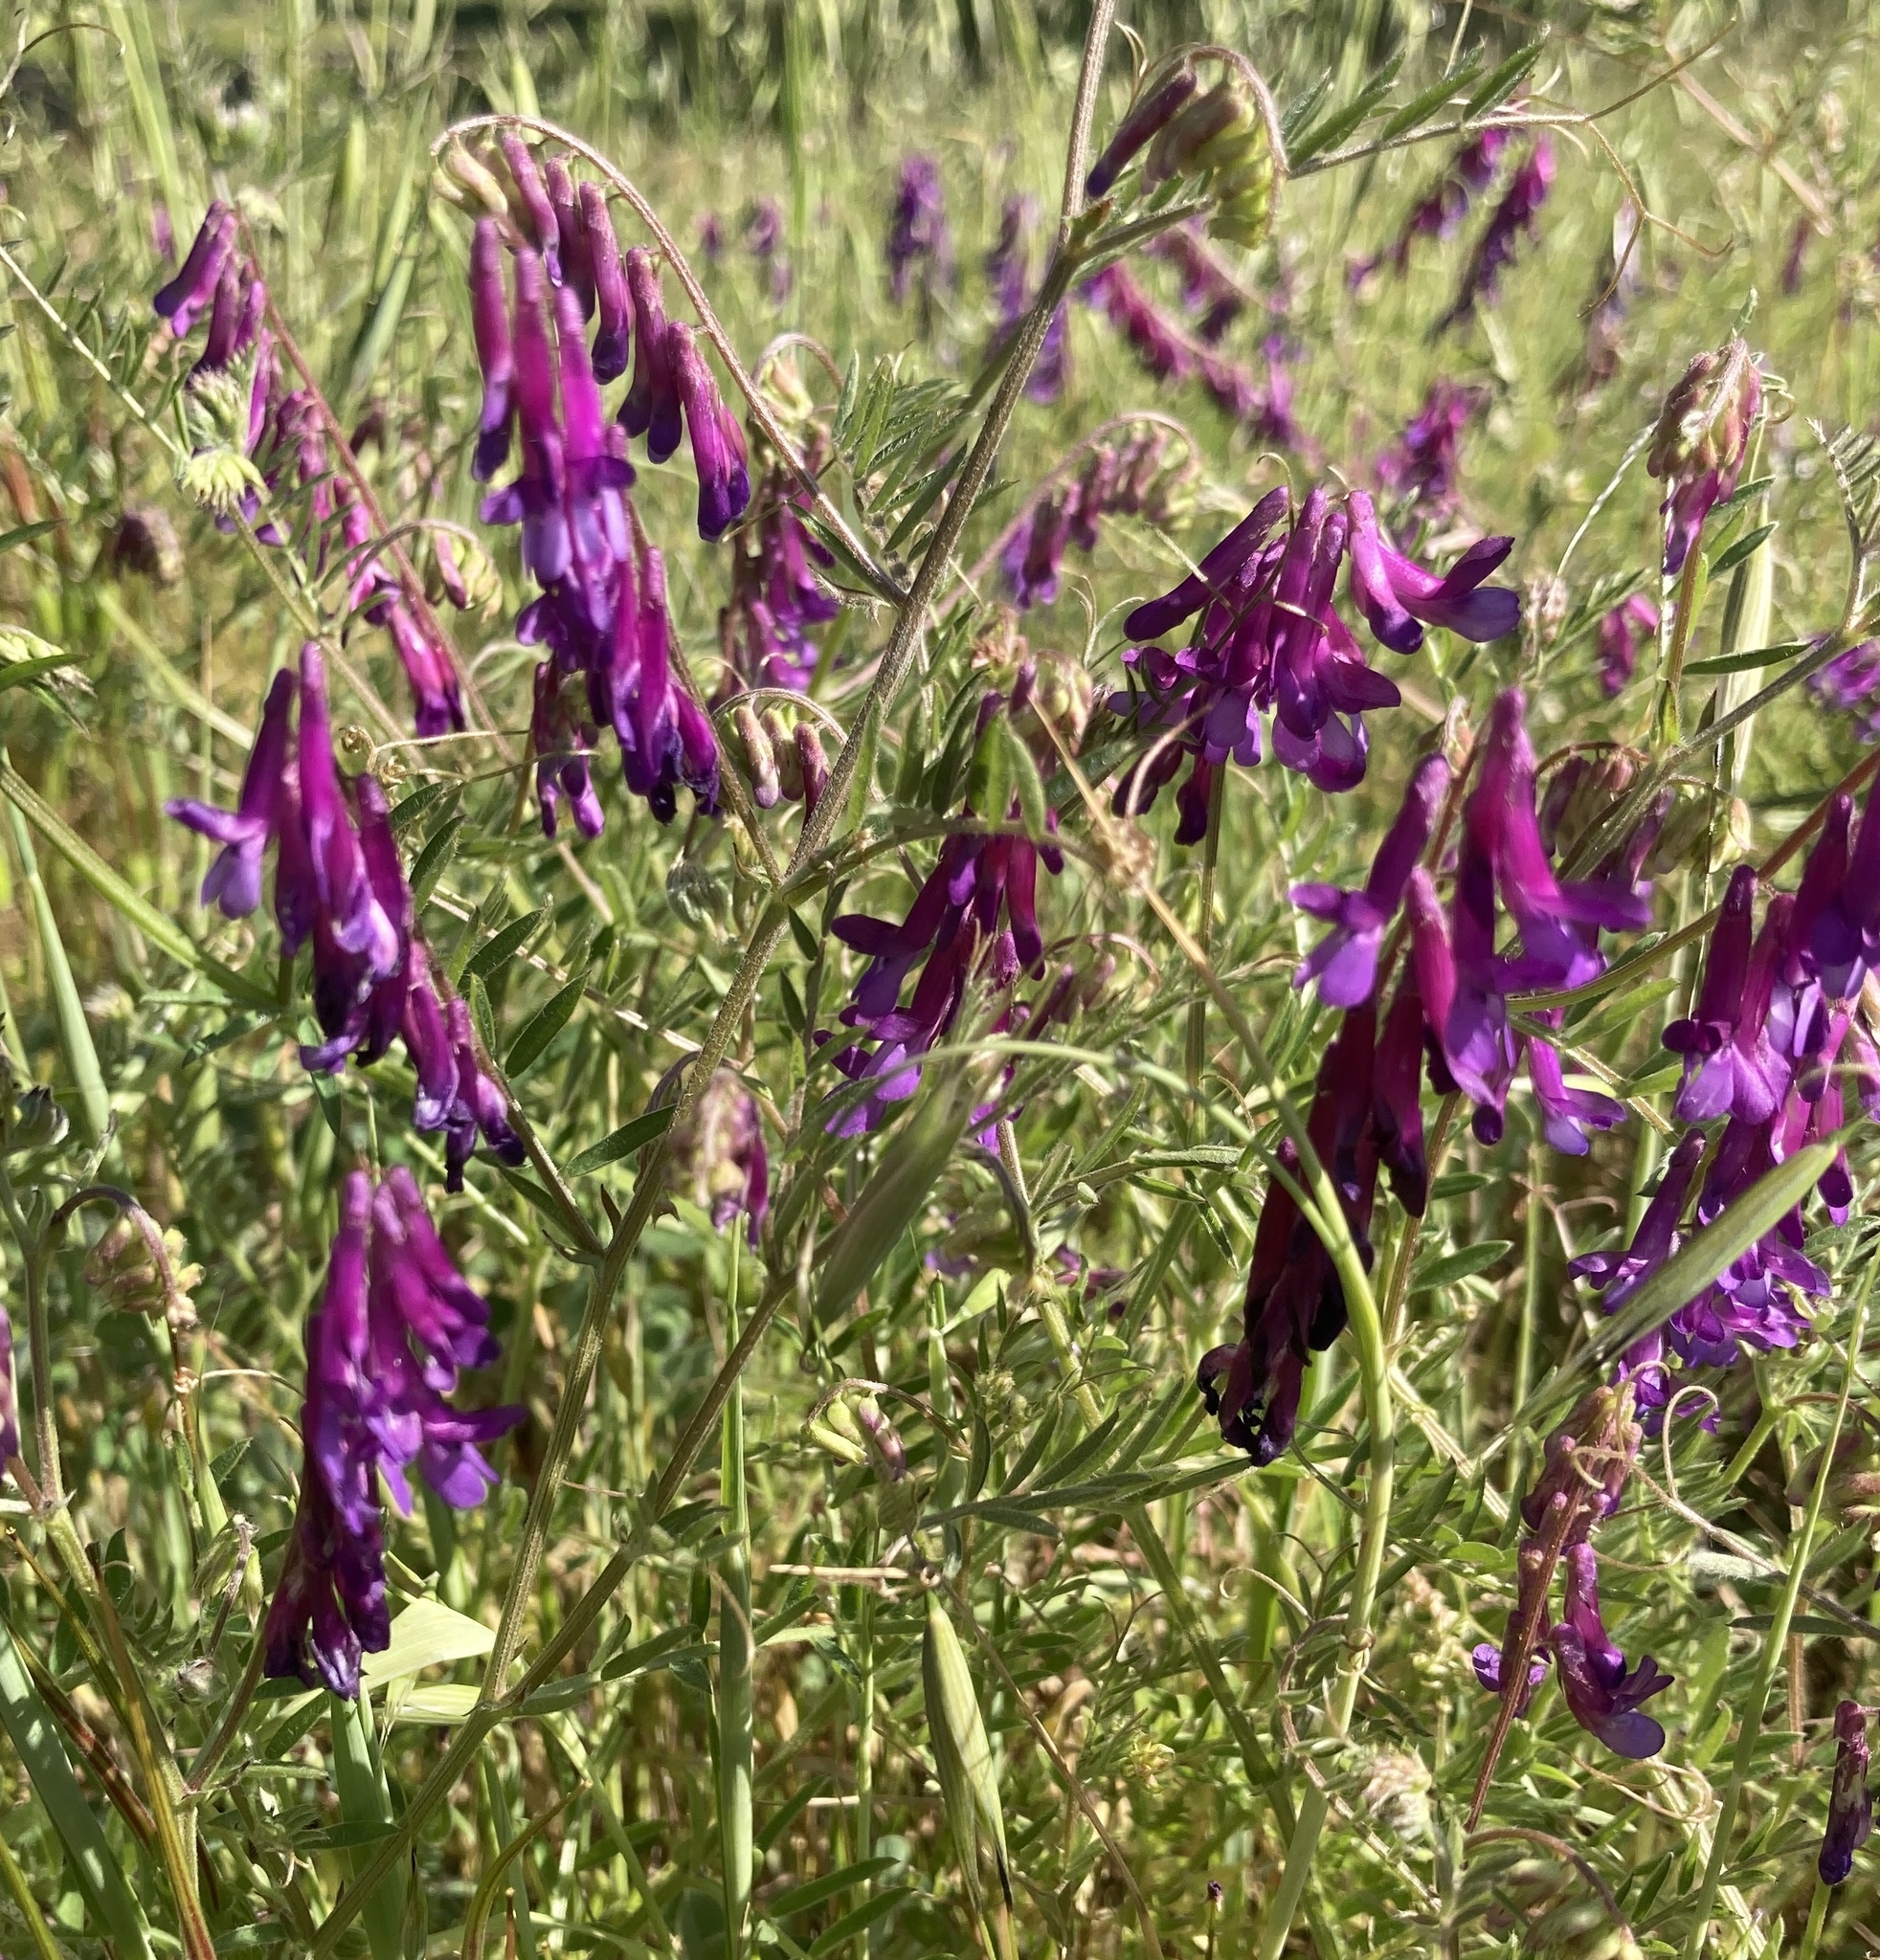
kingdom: Plantae
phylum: Tracheophyta
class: Magnoliopsida
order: Fabales
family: Fabaceae
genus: Vicia
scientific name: Vicia villosa
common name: Fodder vetch
